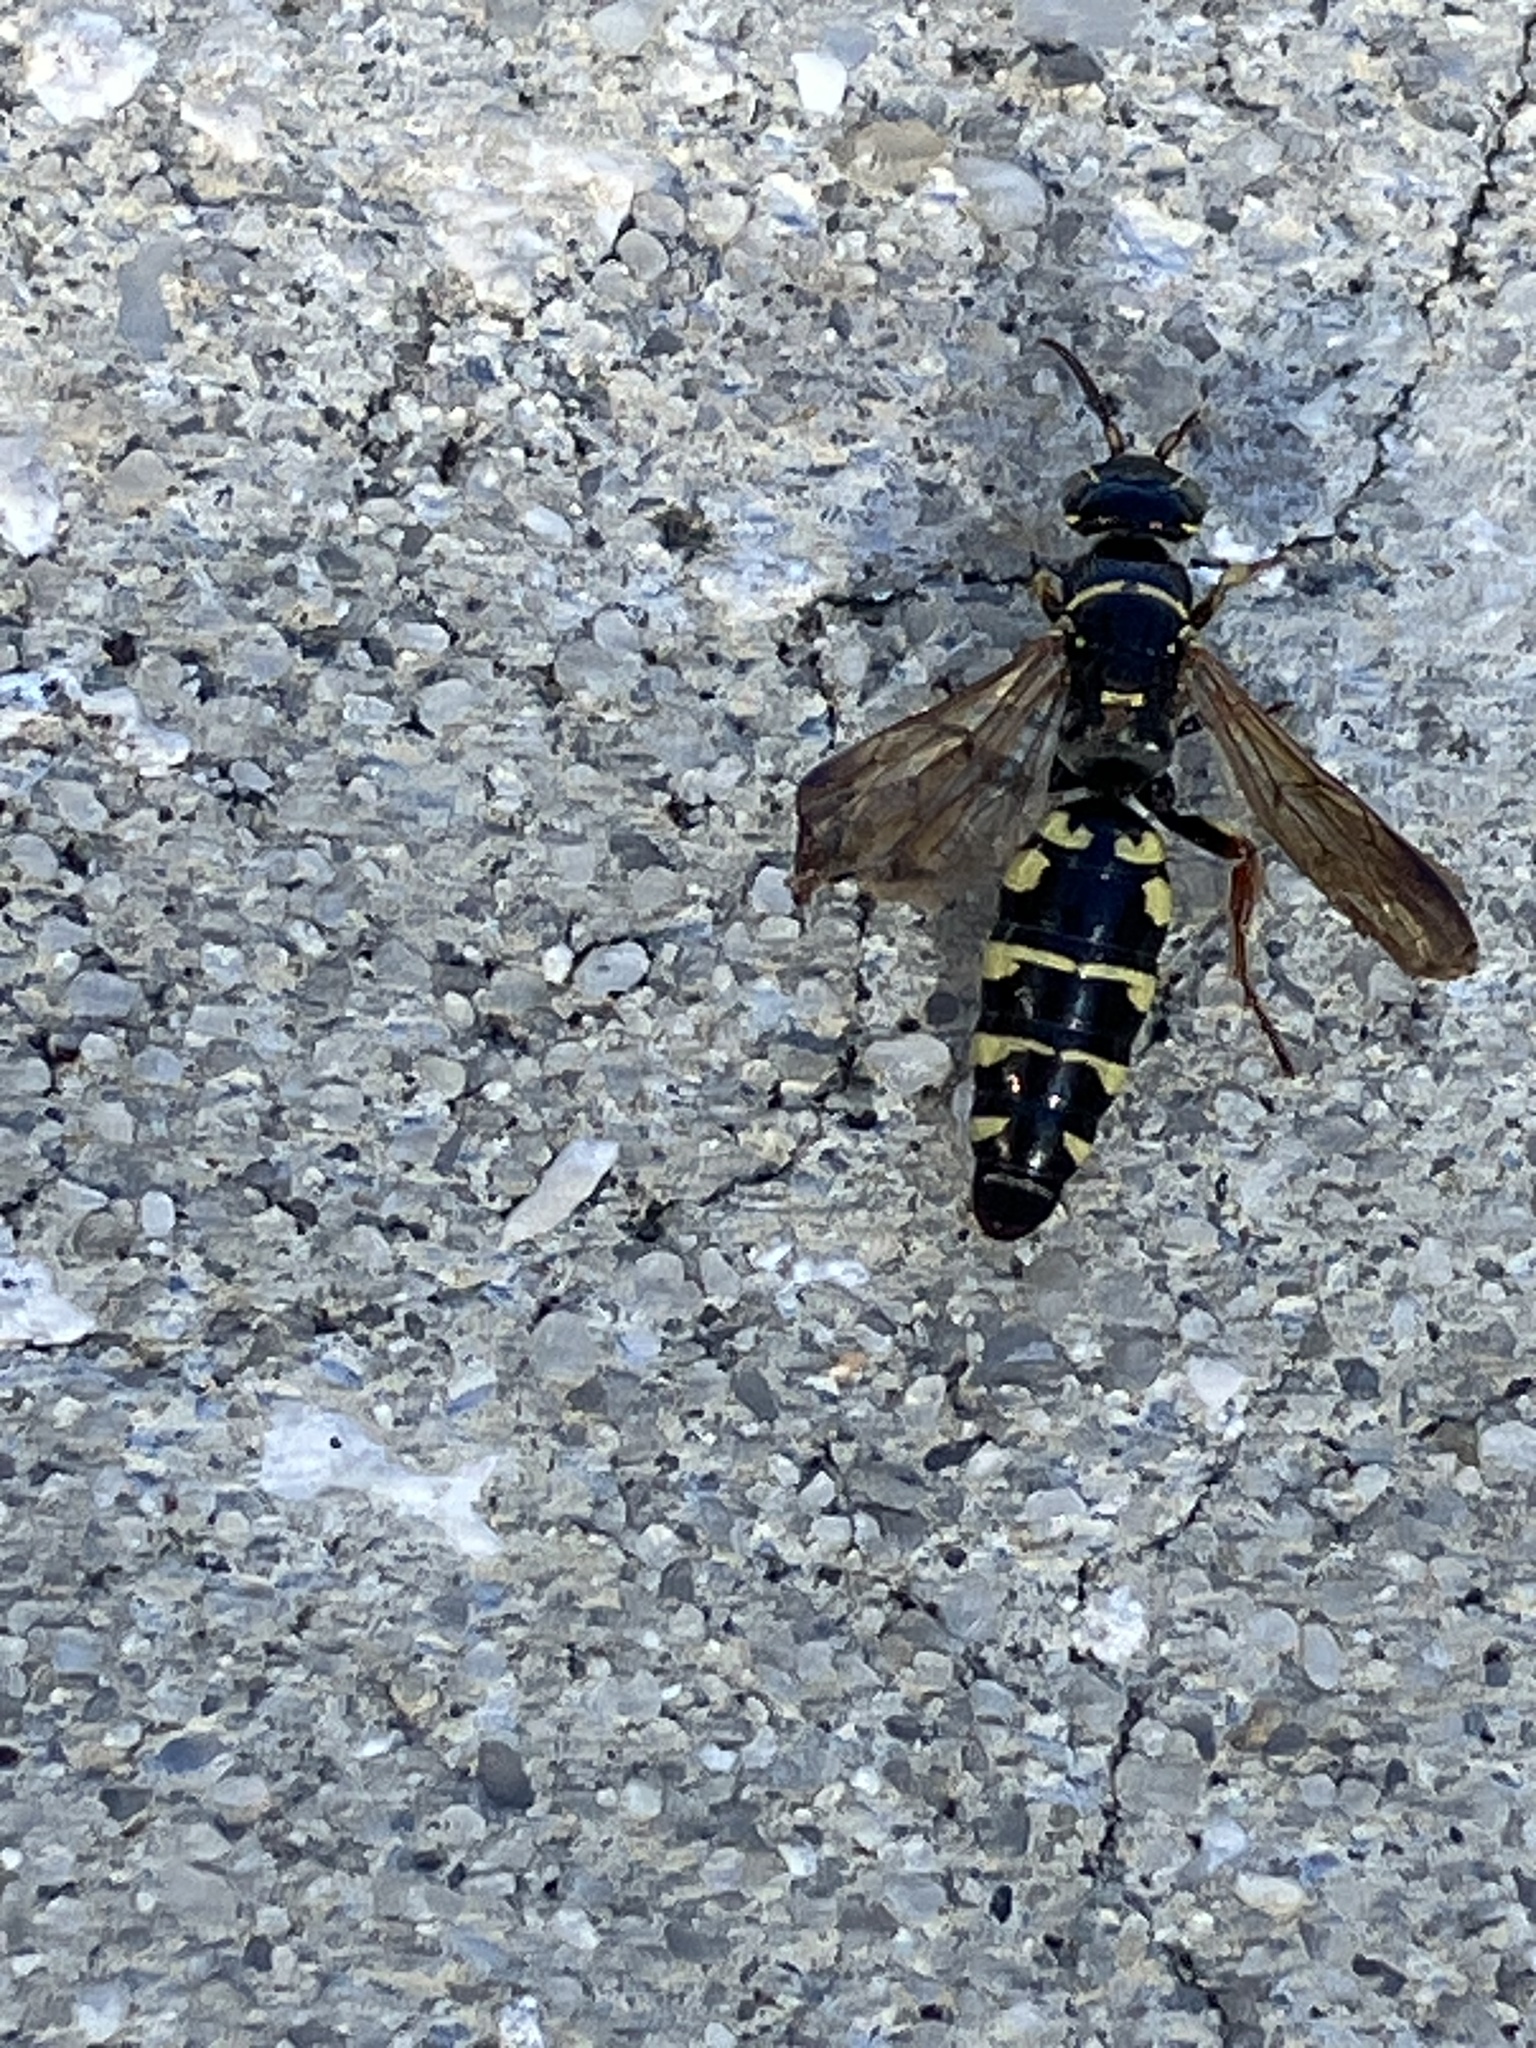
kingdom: Animalia
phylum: Arthropoda
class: Insecta
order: Hymenoptera
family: Tiphiidae
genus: Myzinum
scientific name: Myzinum carolinianum
